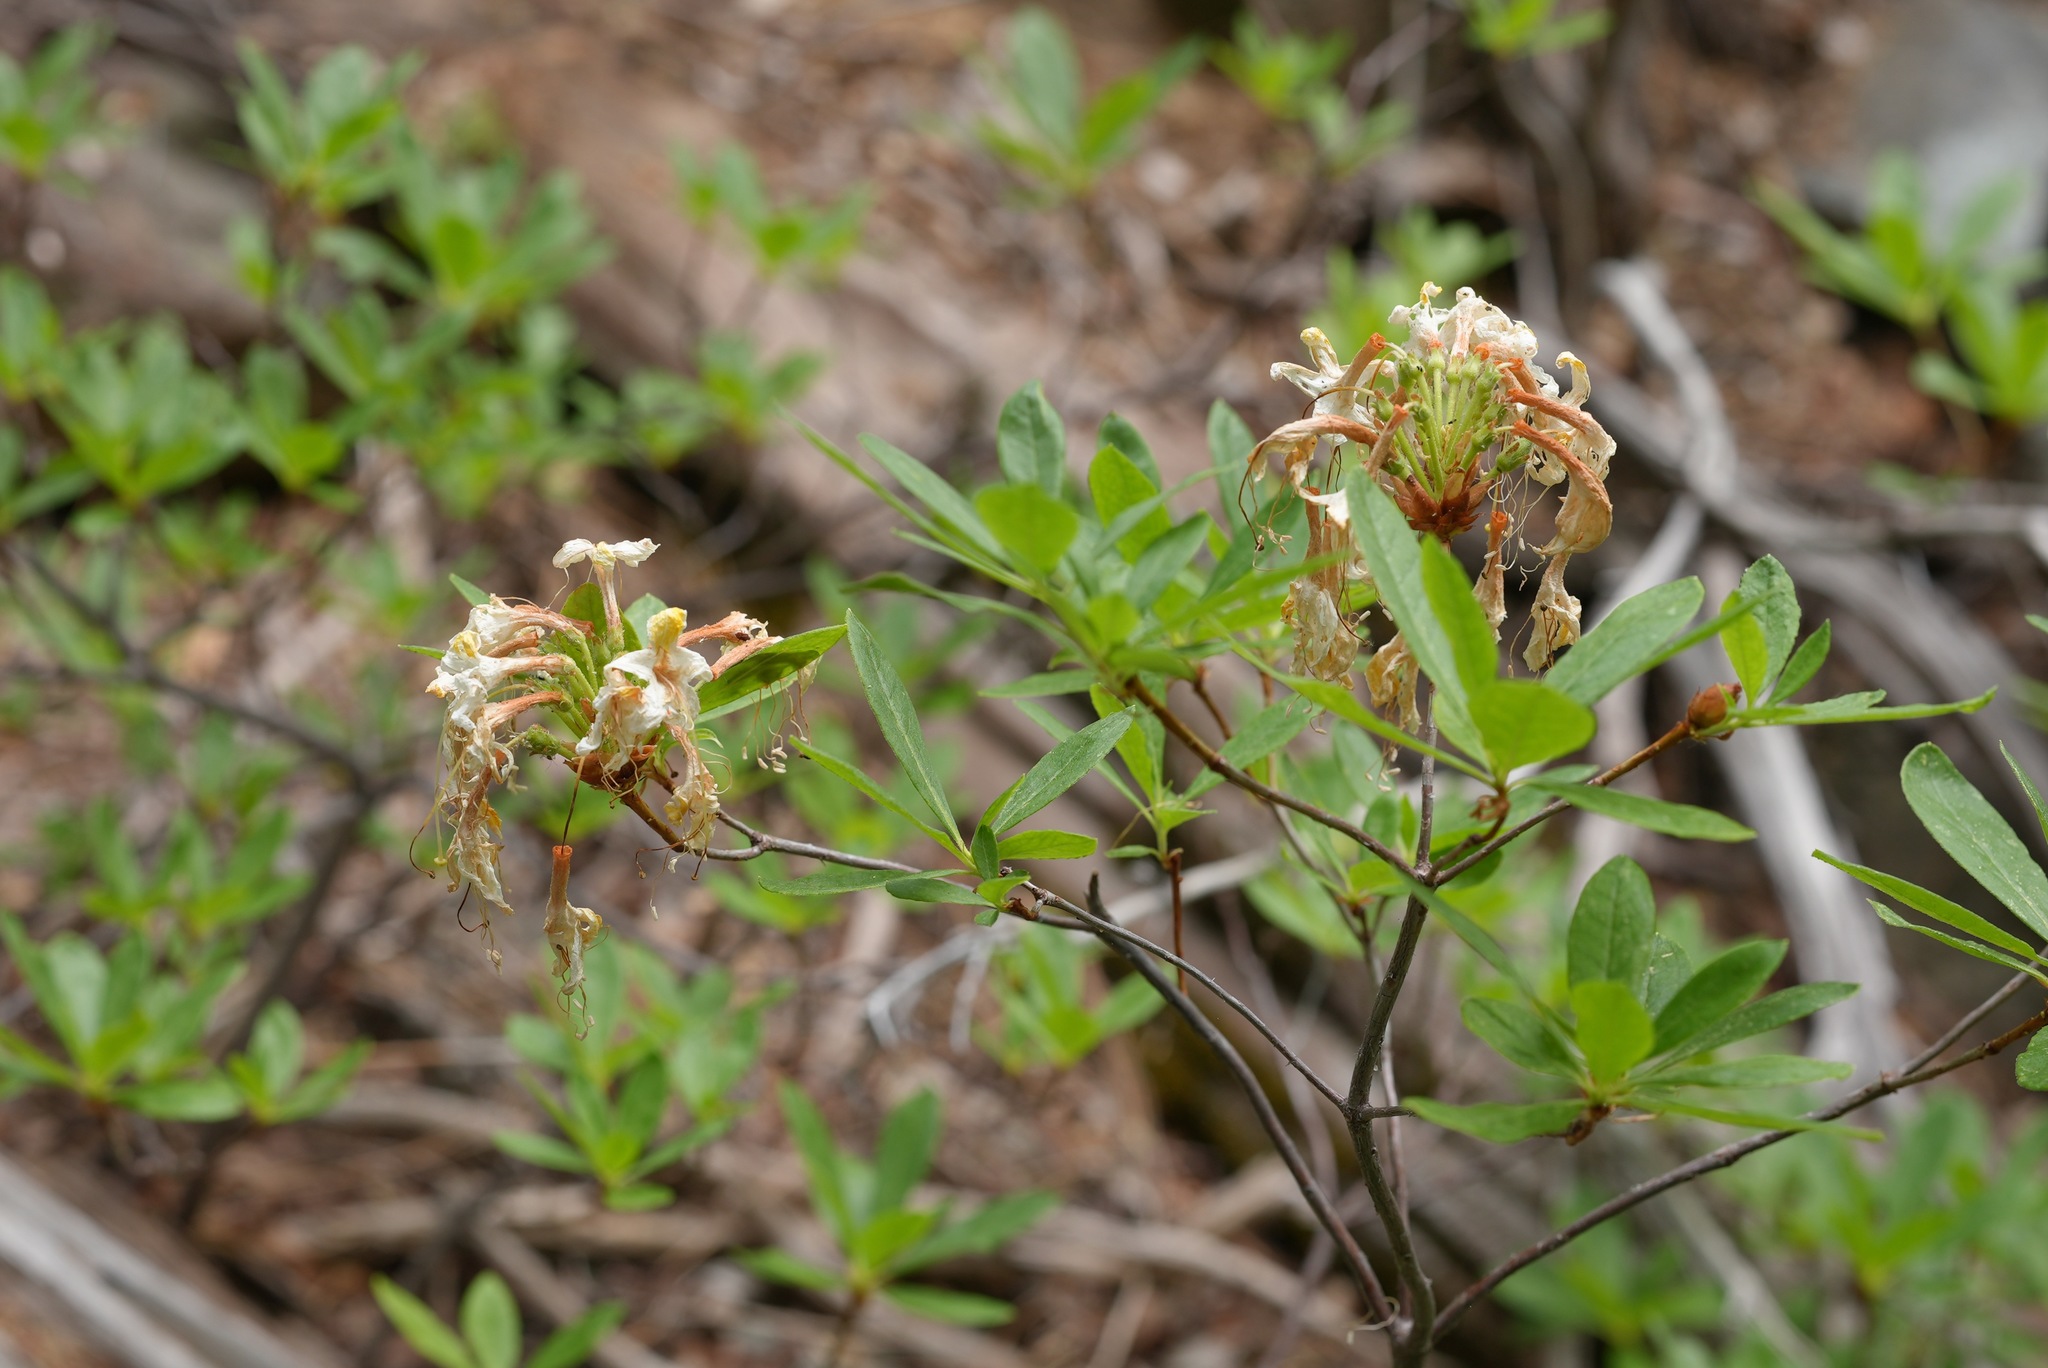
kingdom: Plantae
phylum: Tracheophyta
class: Magnoliopsida
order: Ericales
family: Ericaceae
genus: Rhododendron
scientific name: Rhododendron occidentale
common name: Western azalea
